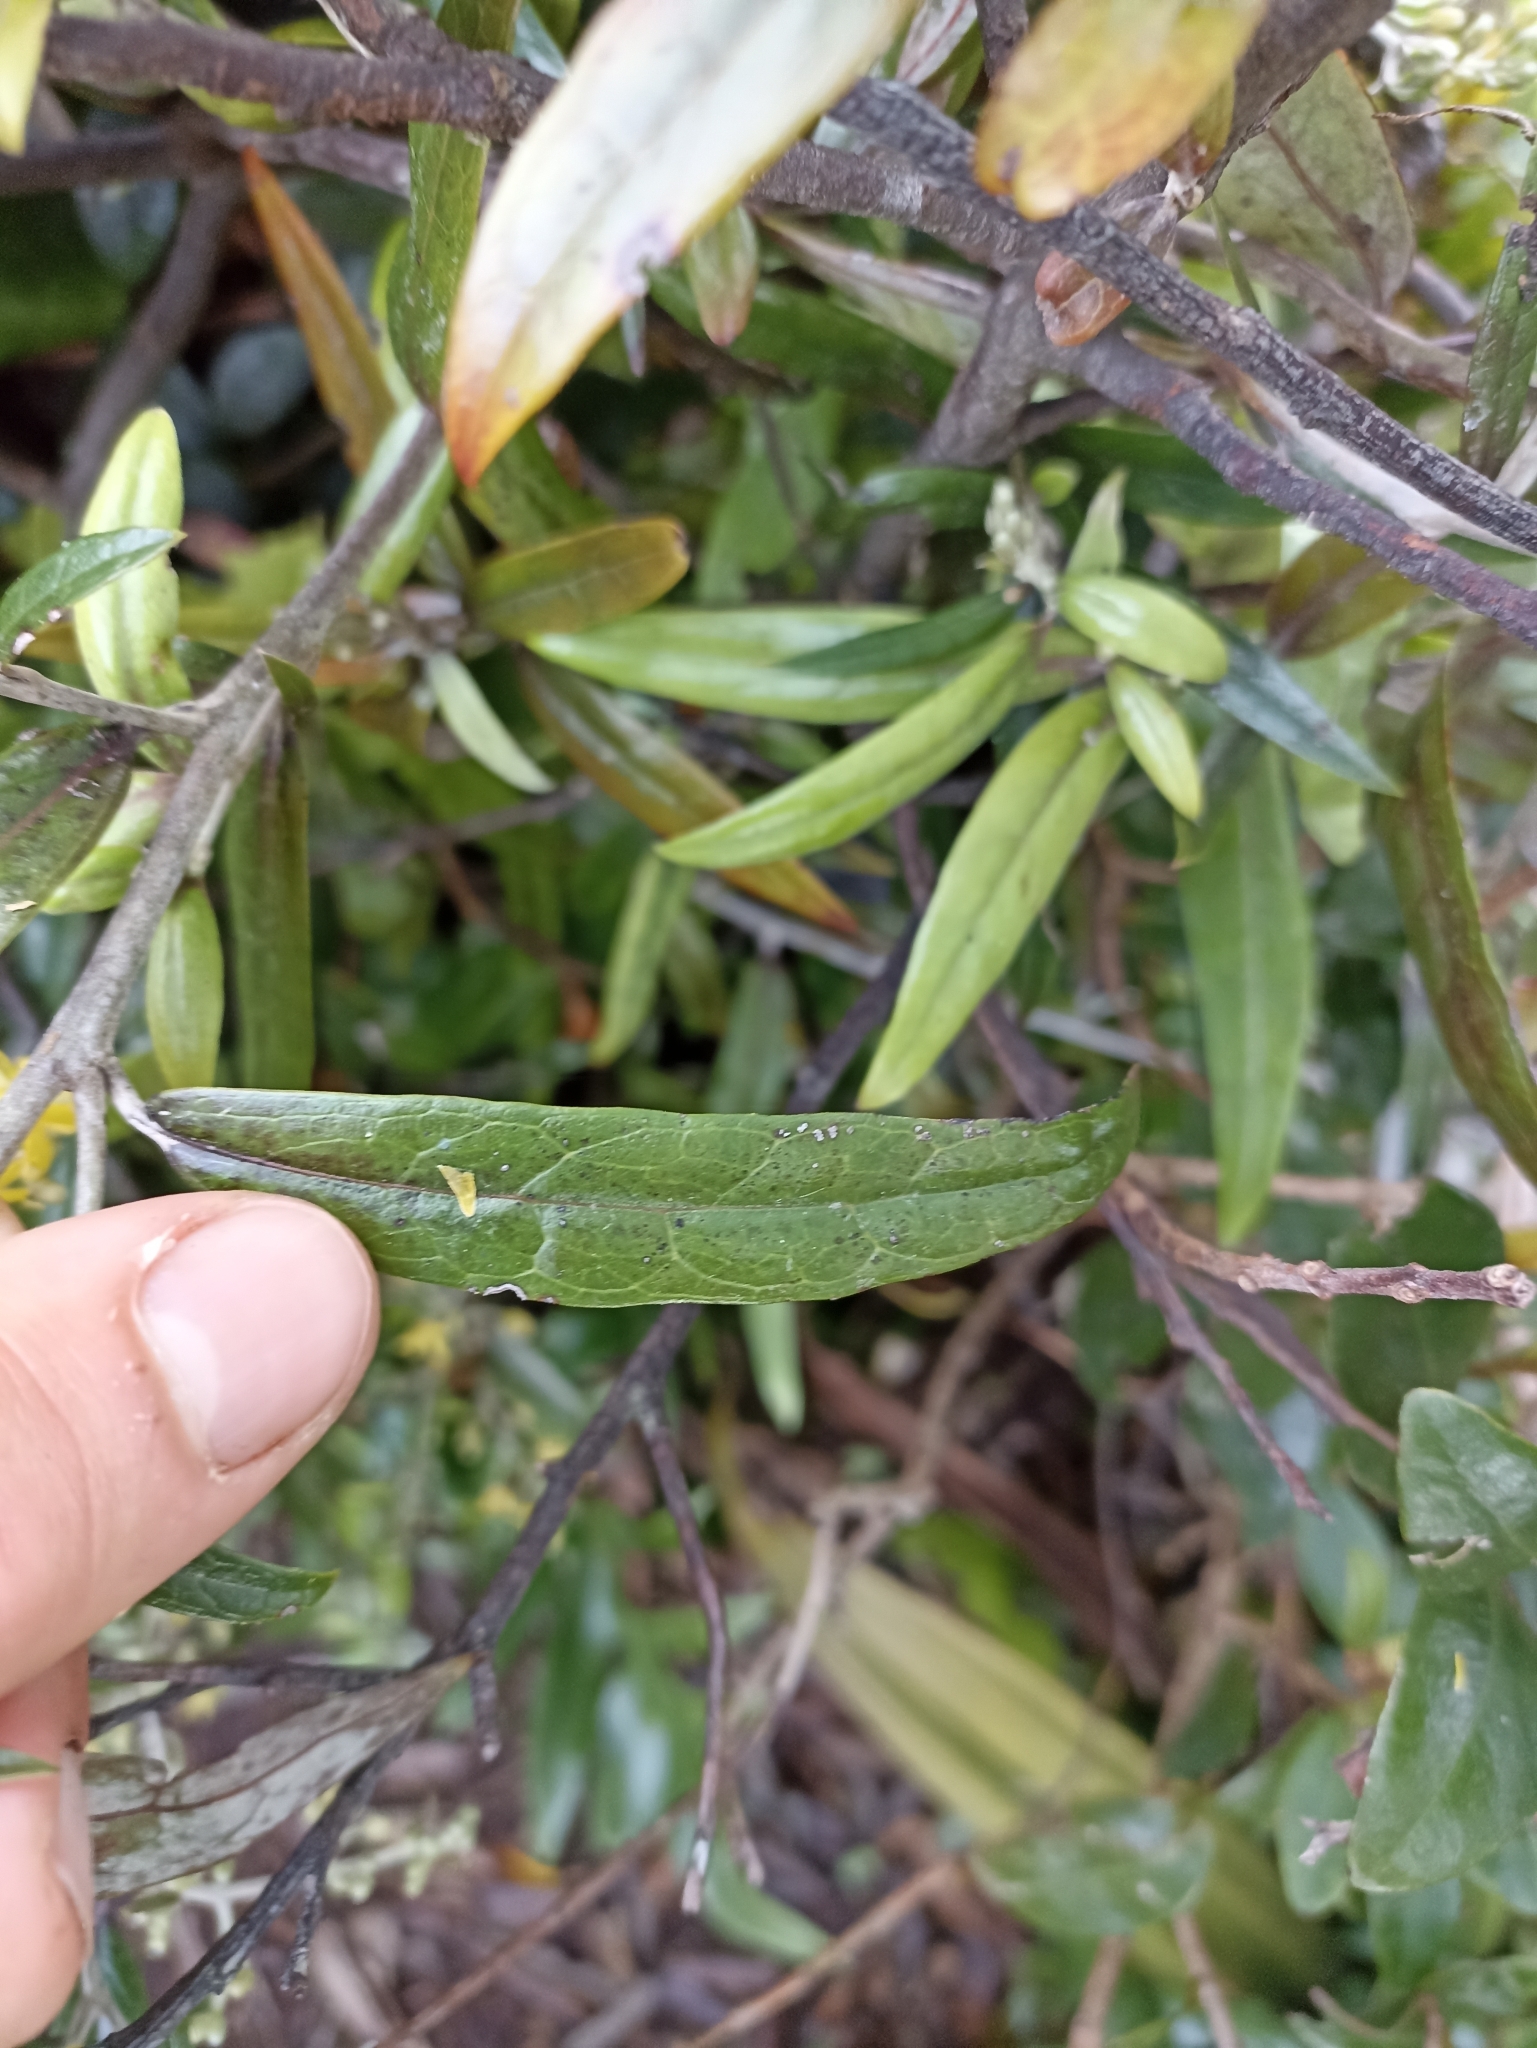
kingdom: Plantae
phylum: Tracheophyta
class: Magnoliopsida
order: Asterales
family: Argophyllaceae
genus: Corokia
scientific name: Corokia buddleioides
